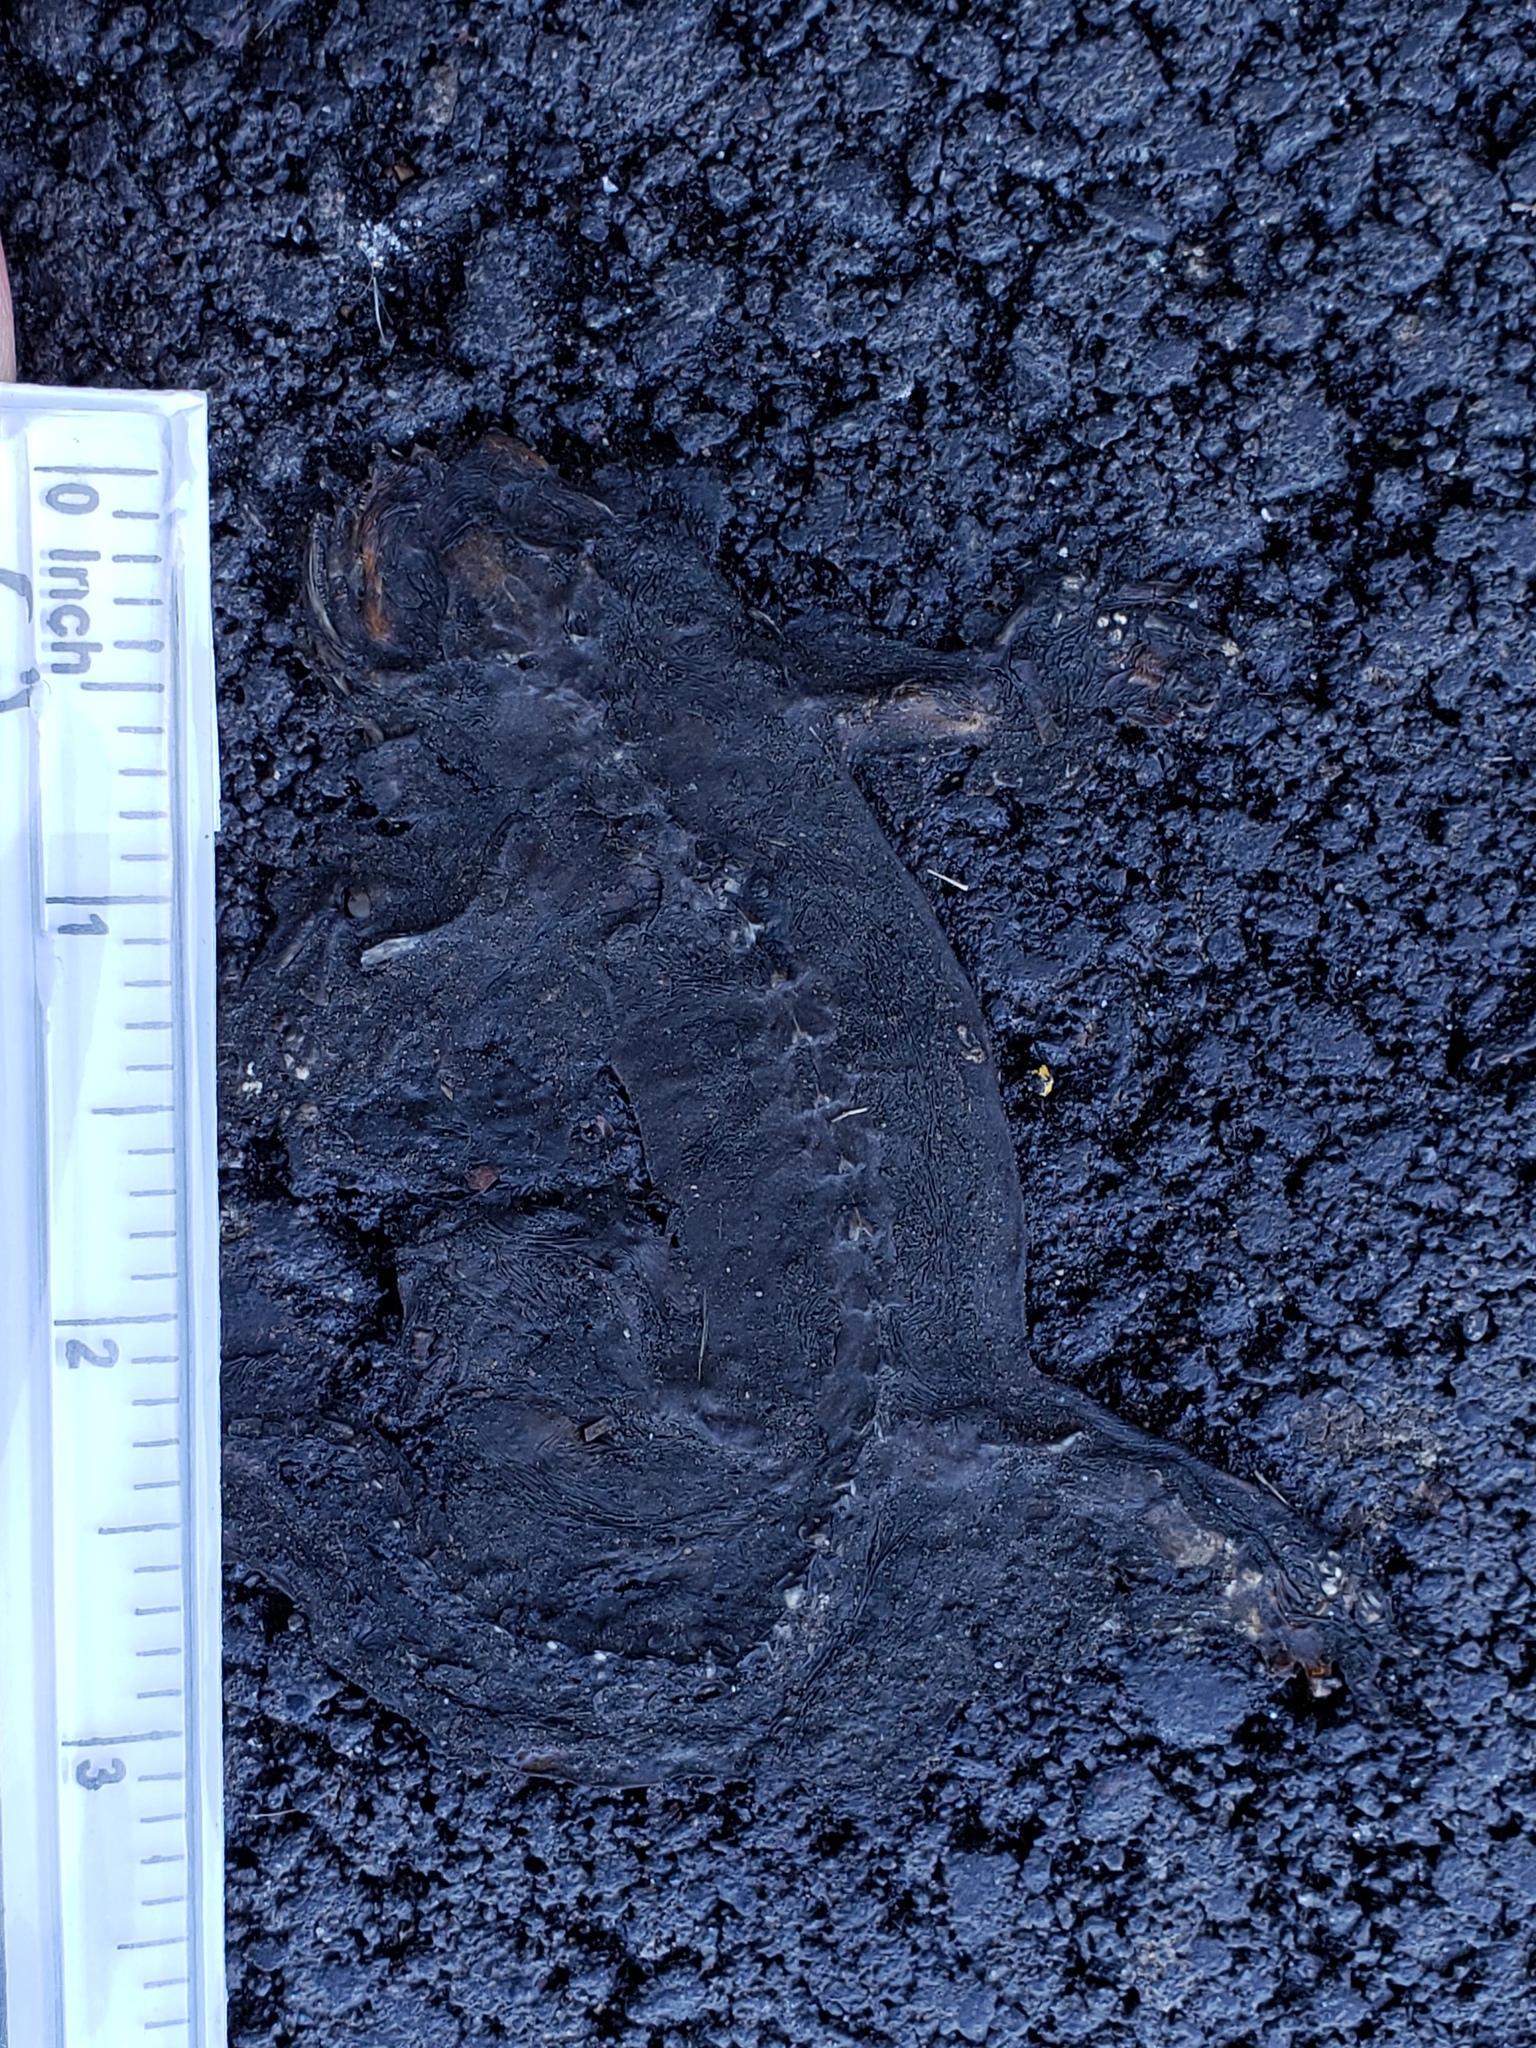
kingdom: Animalia
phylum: Chordata
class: Amphibia
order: Caudata
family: Salamandridae
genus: Taricha
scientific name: Taricha
